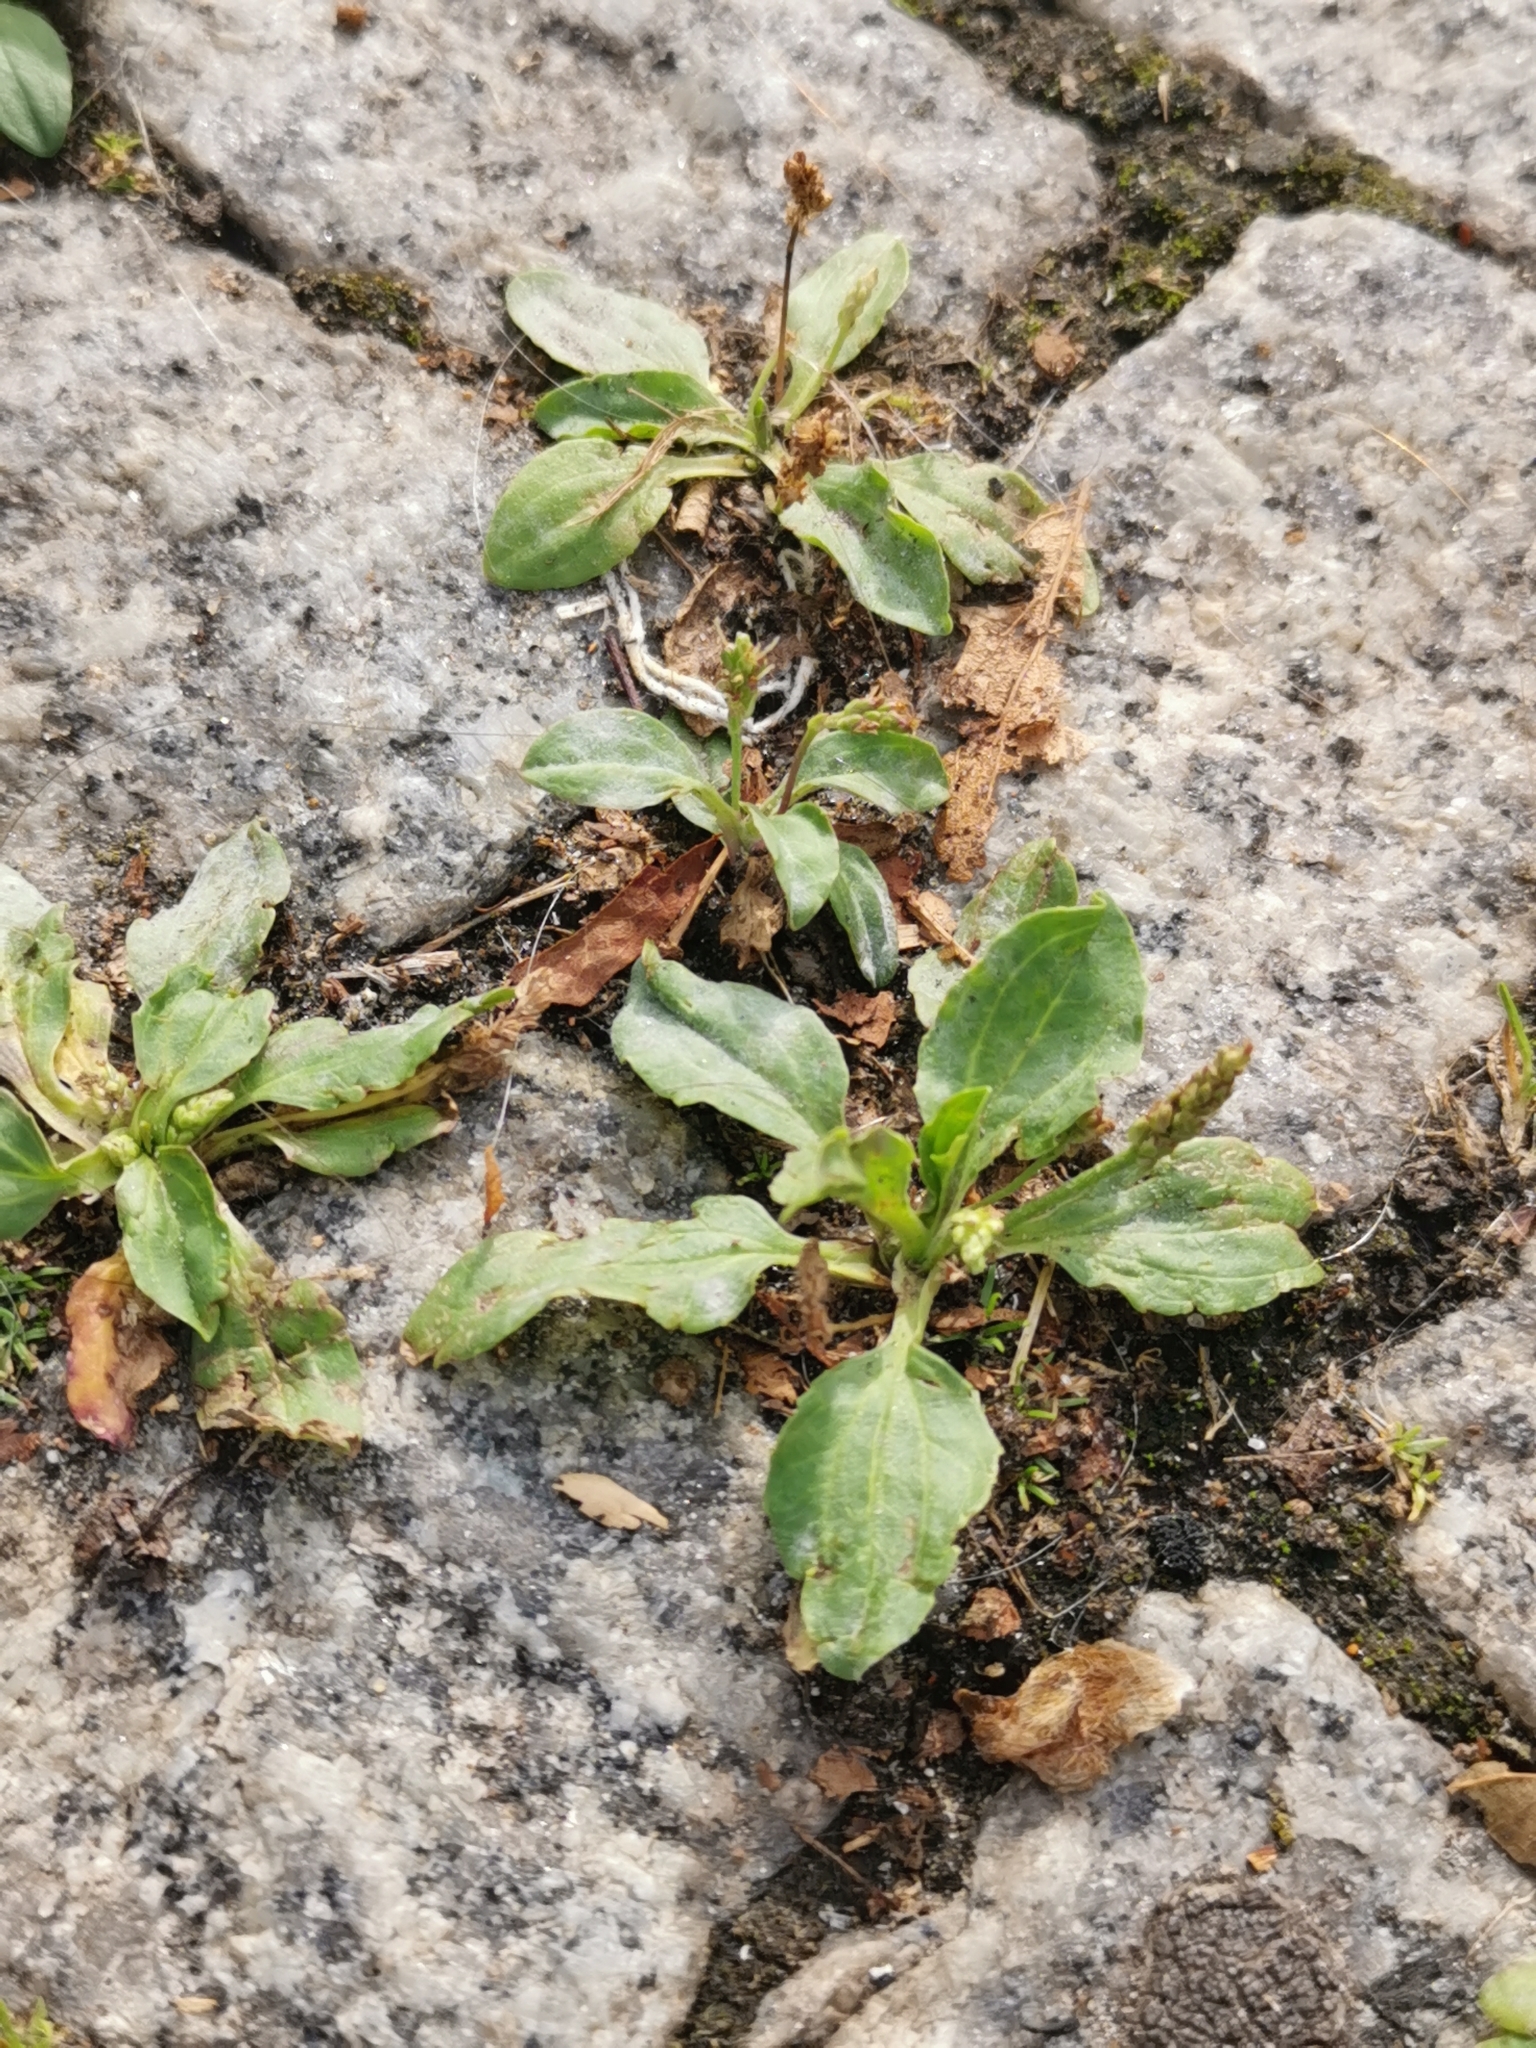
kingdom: Plantae
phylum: Tracheophyta
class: Magnoliopsida
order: Lamiales
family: Plantaginaceae
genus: Plantago
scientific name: Plantago major
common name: Common plantain
